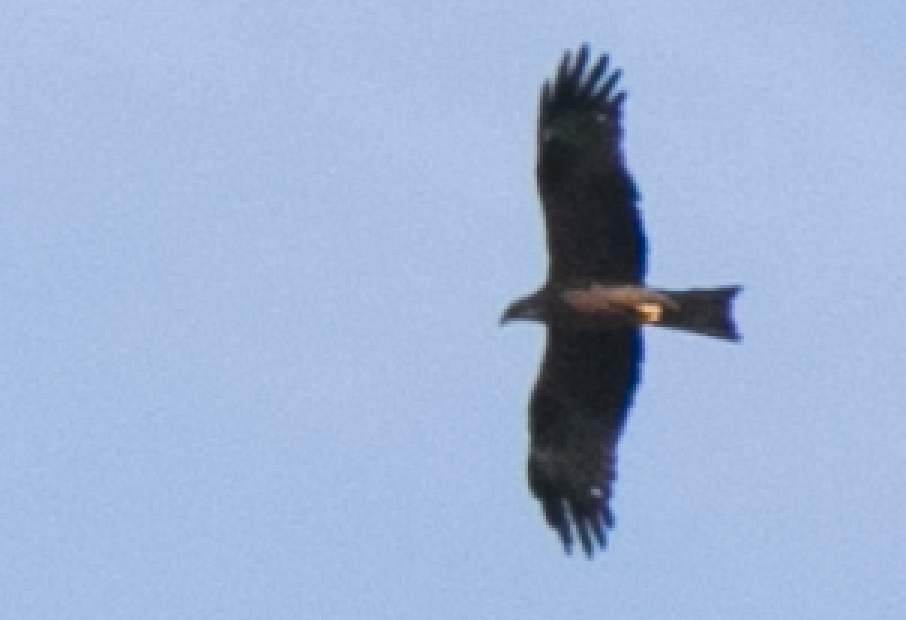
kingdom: Animalia
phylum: Chordata
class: Aves
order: Accipitriformes
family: Accipitridae
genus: Milvus
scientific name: Milvus migrans
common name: Black kite
